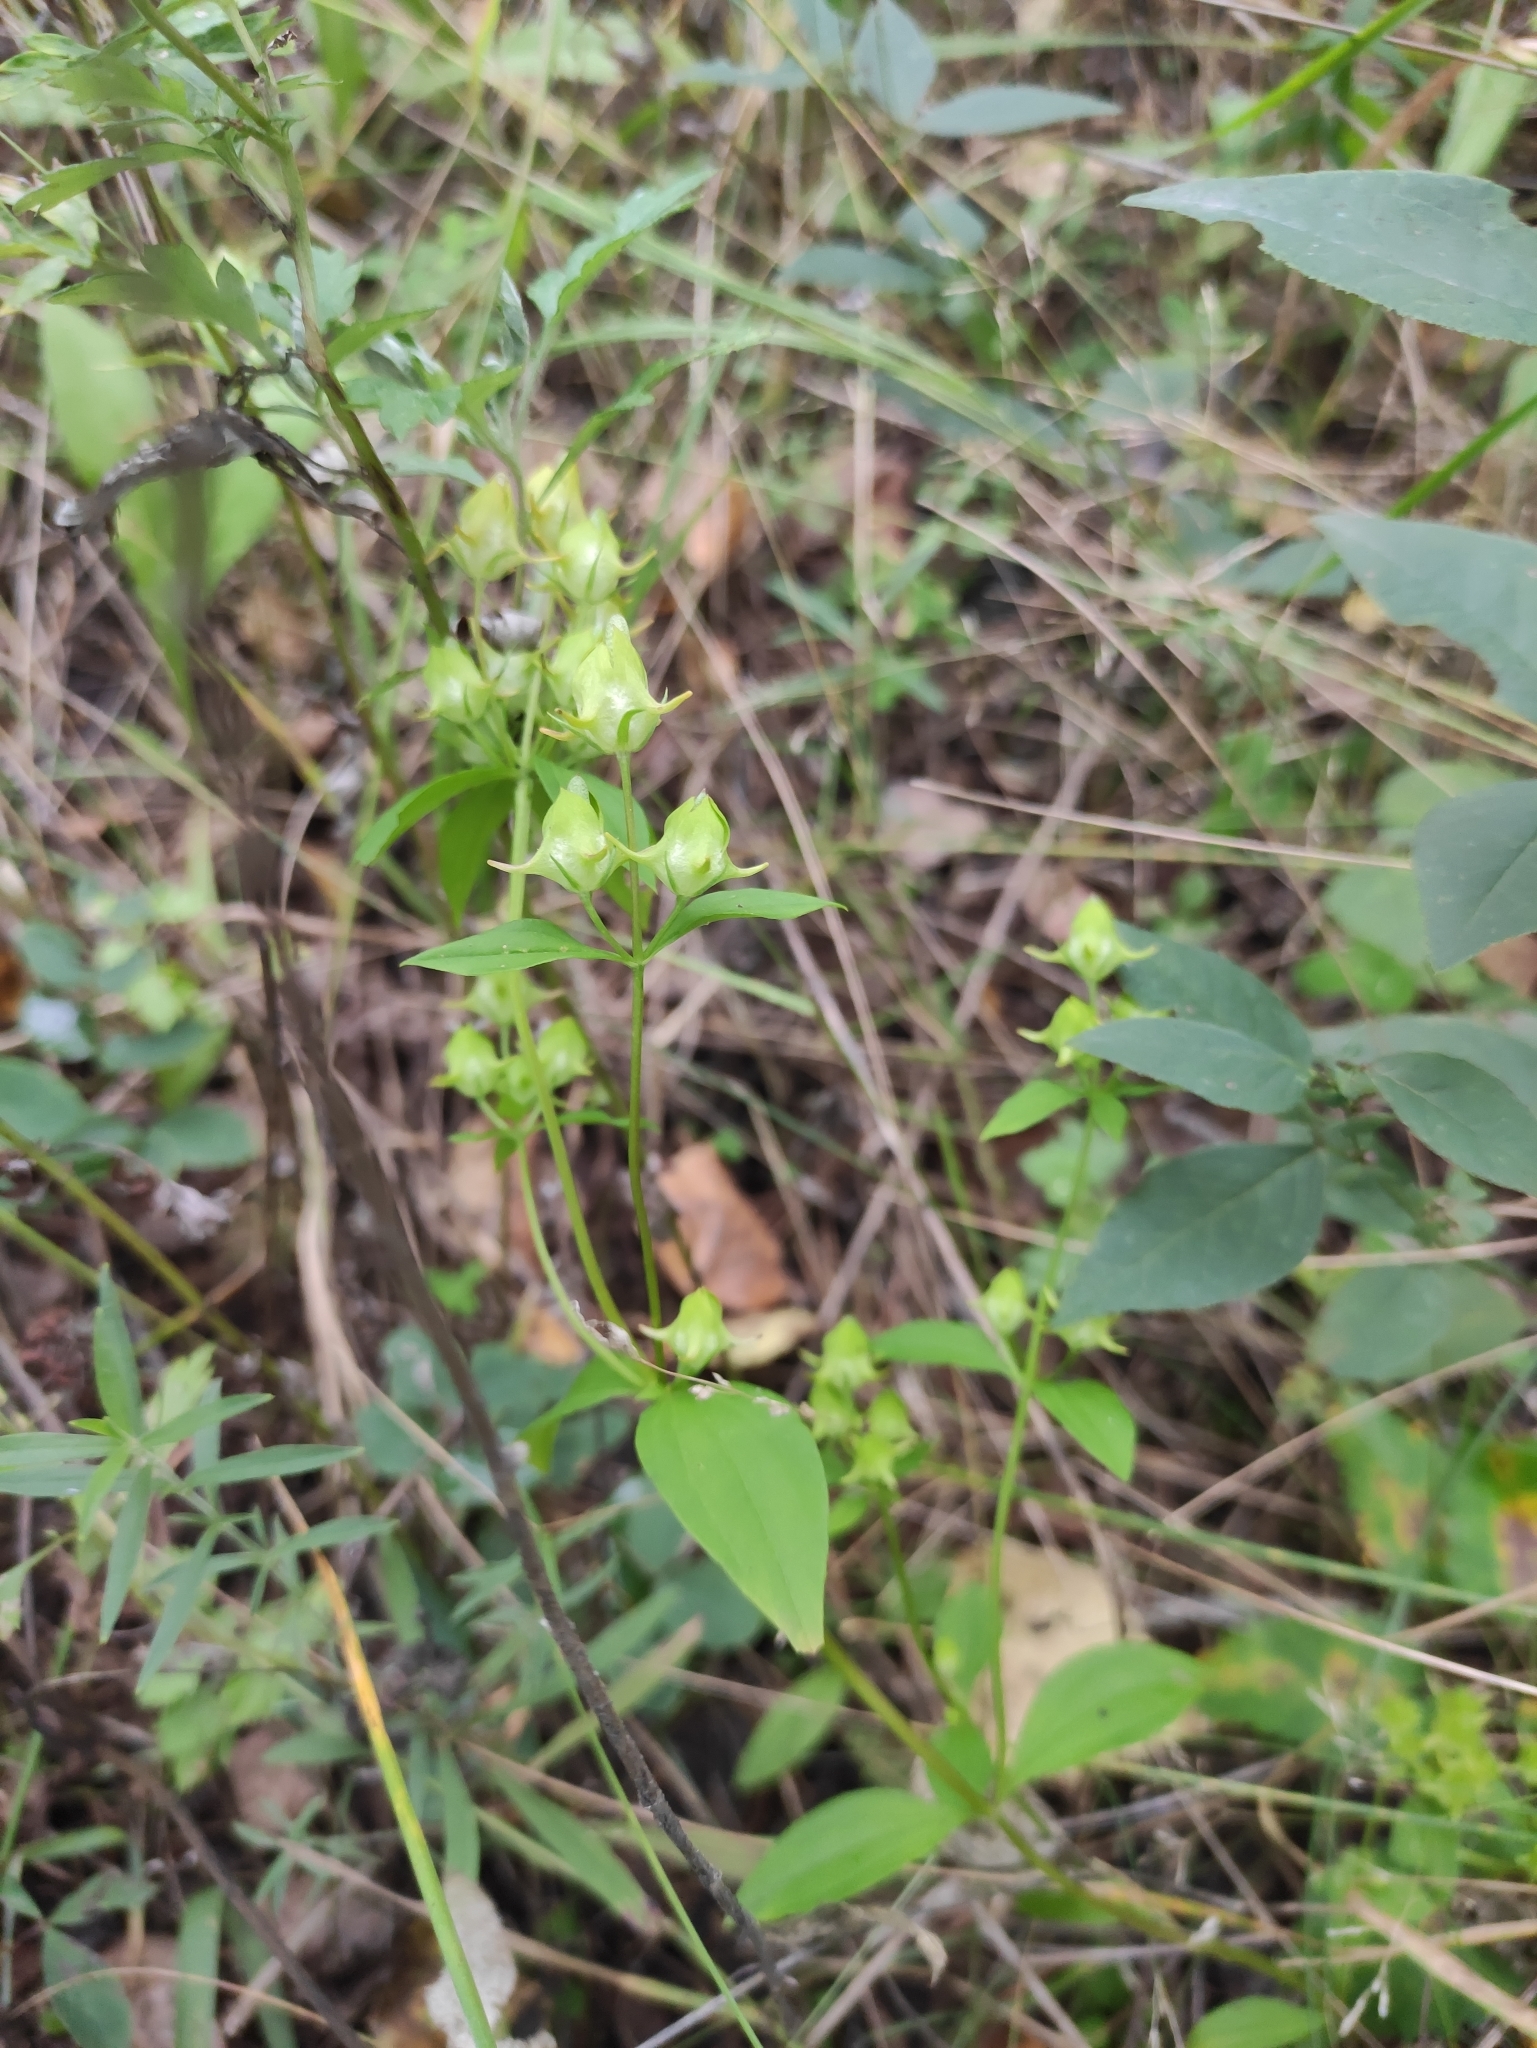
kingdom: Plantae
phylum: Tracheophyta
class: Magnoliopsida
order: Gentianales
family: Gentianaceae
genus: Halenia
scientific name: Halenia corniculata
